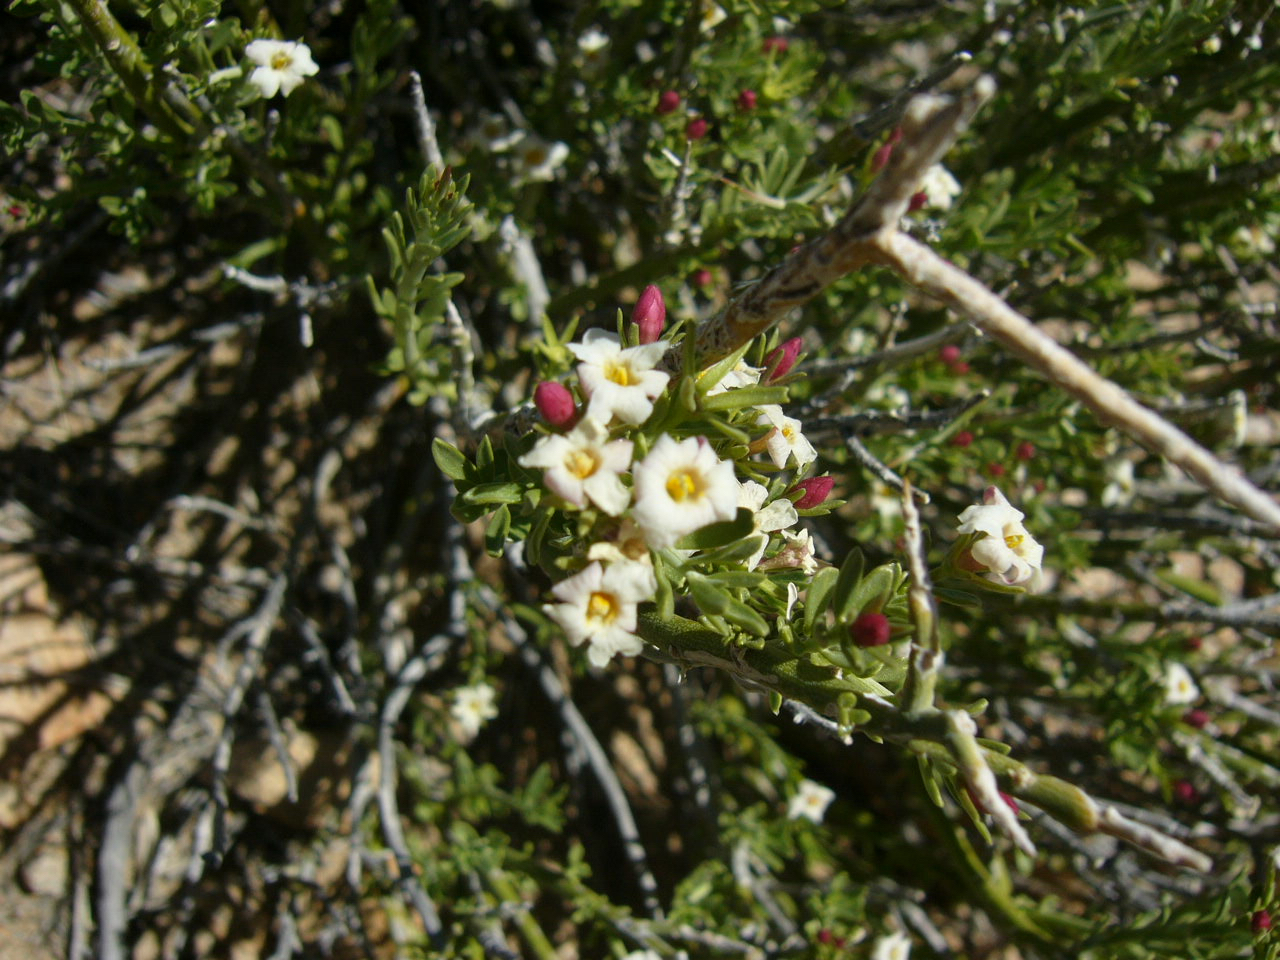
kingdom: Plantae
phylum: Tracheophyta
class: Magnoliopsida
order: Lamiales
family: Oleaceae
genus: Menodora
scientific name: Menodora spinescens
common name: Spiny menodora
